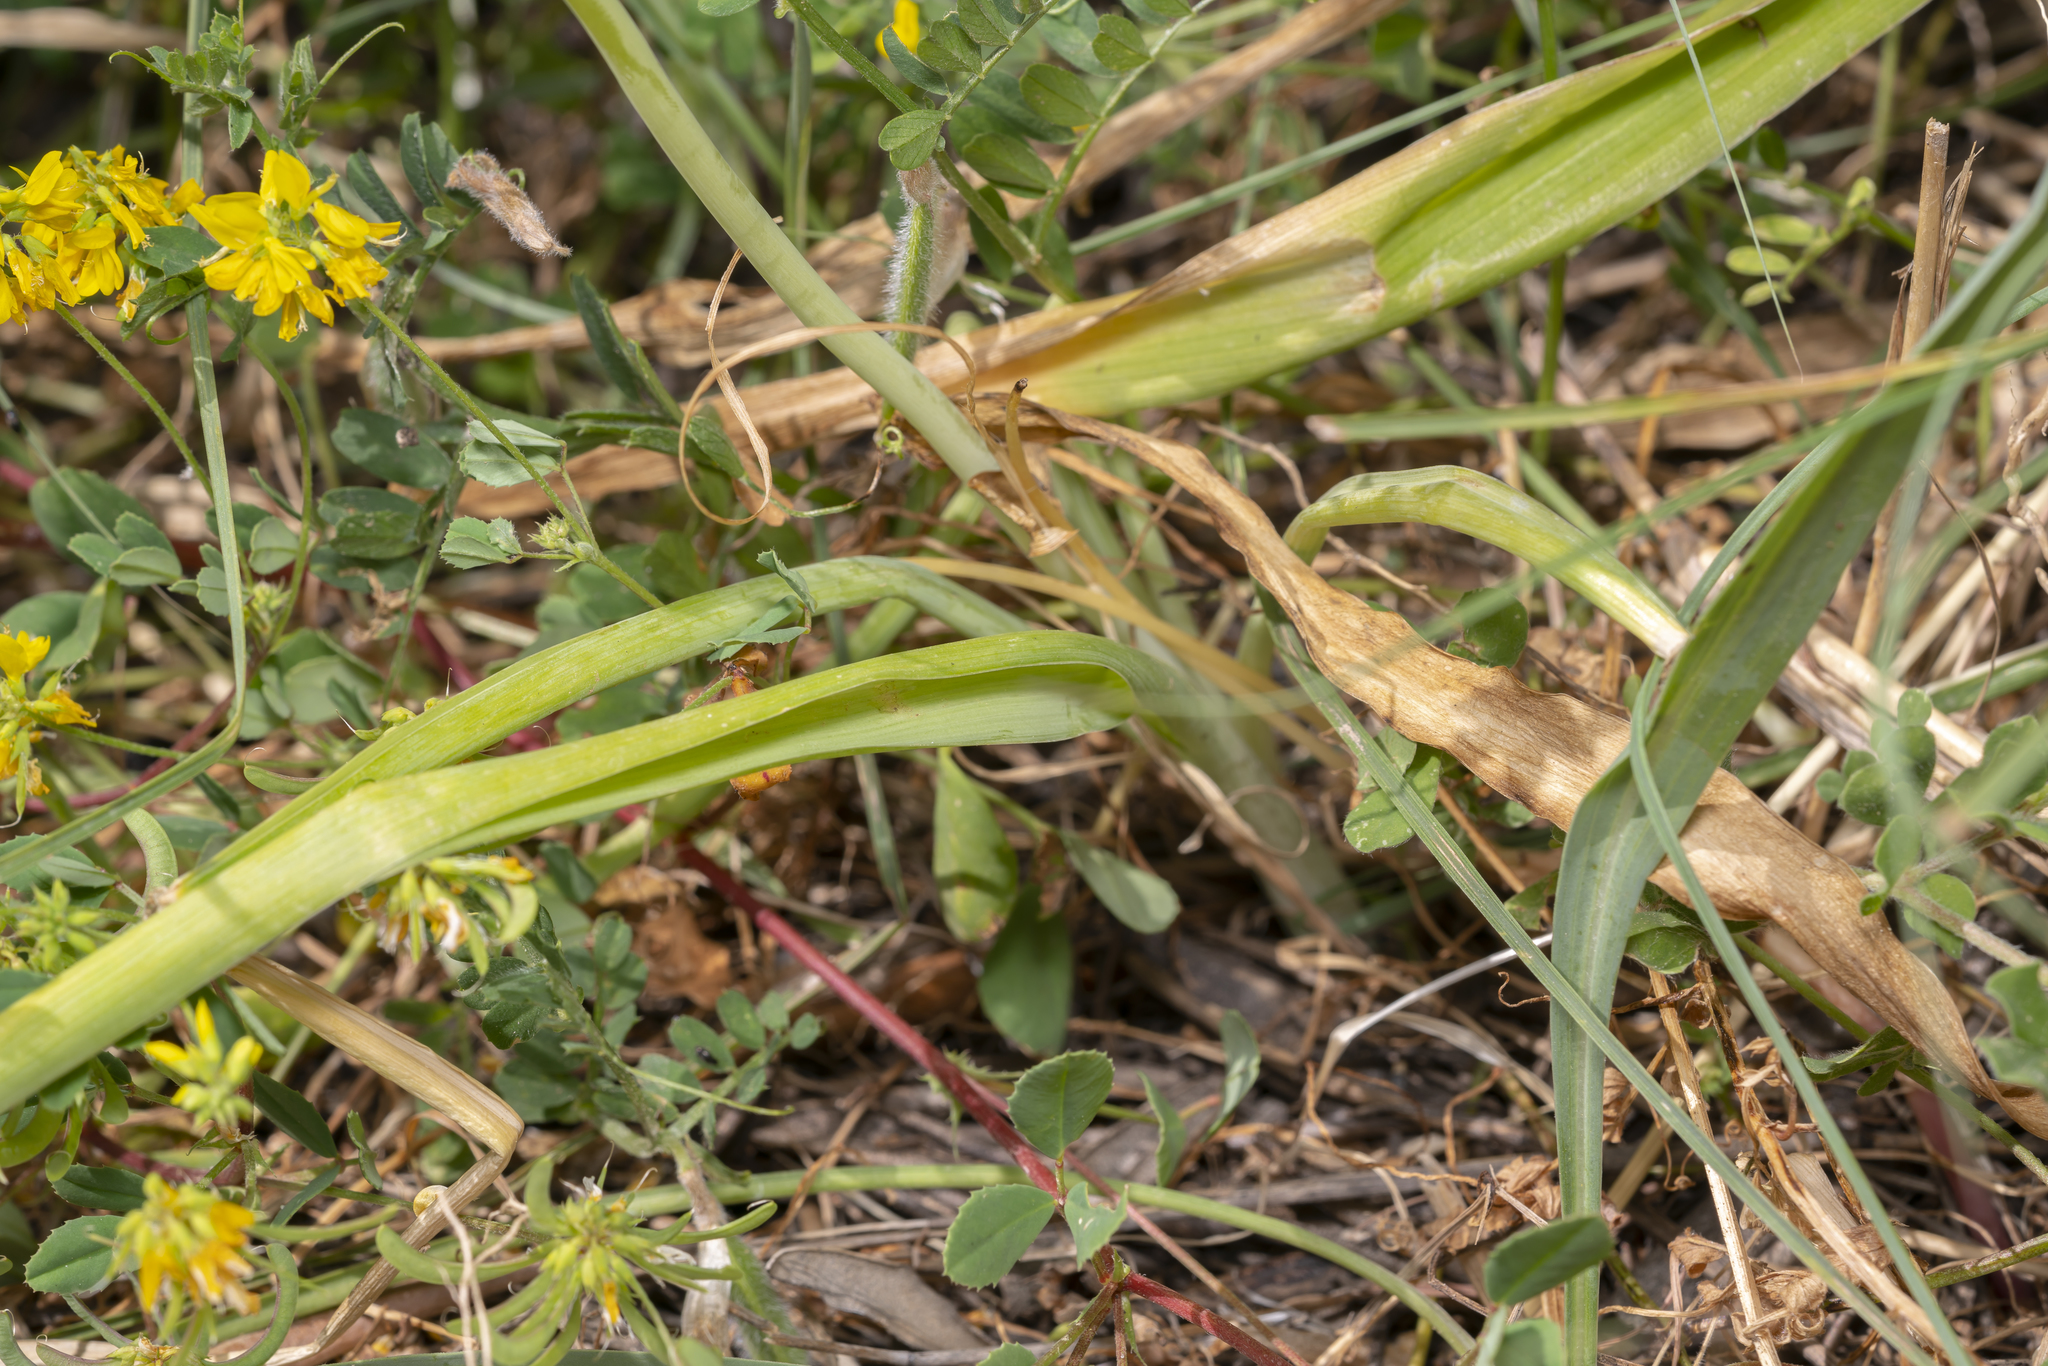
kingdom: Plantae
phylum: Tracheophyta
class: Liliopsida
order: Asparagales
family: Asparagaceae
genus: Ornithogalum
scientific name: Ornithogalum narbonense
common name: Bath-asparagus
